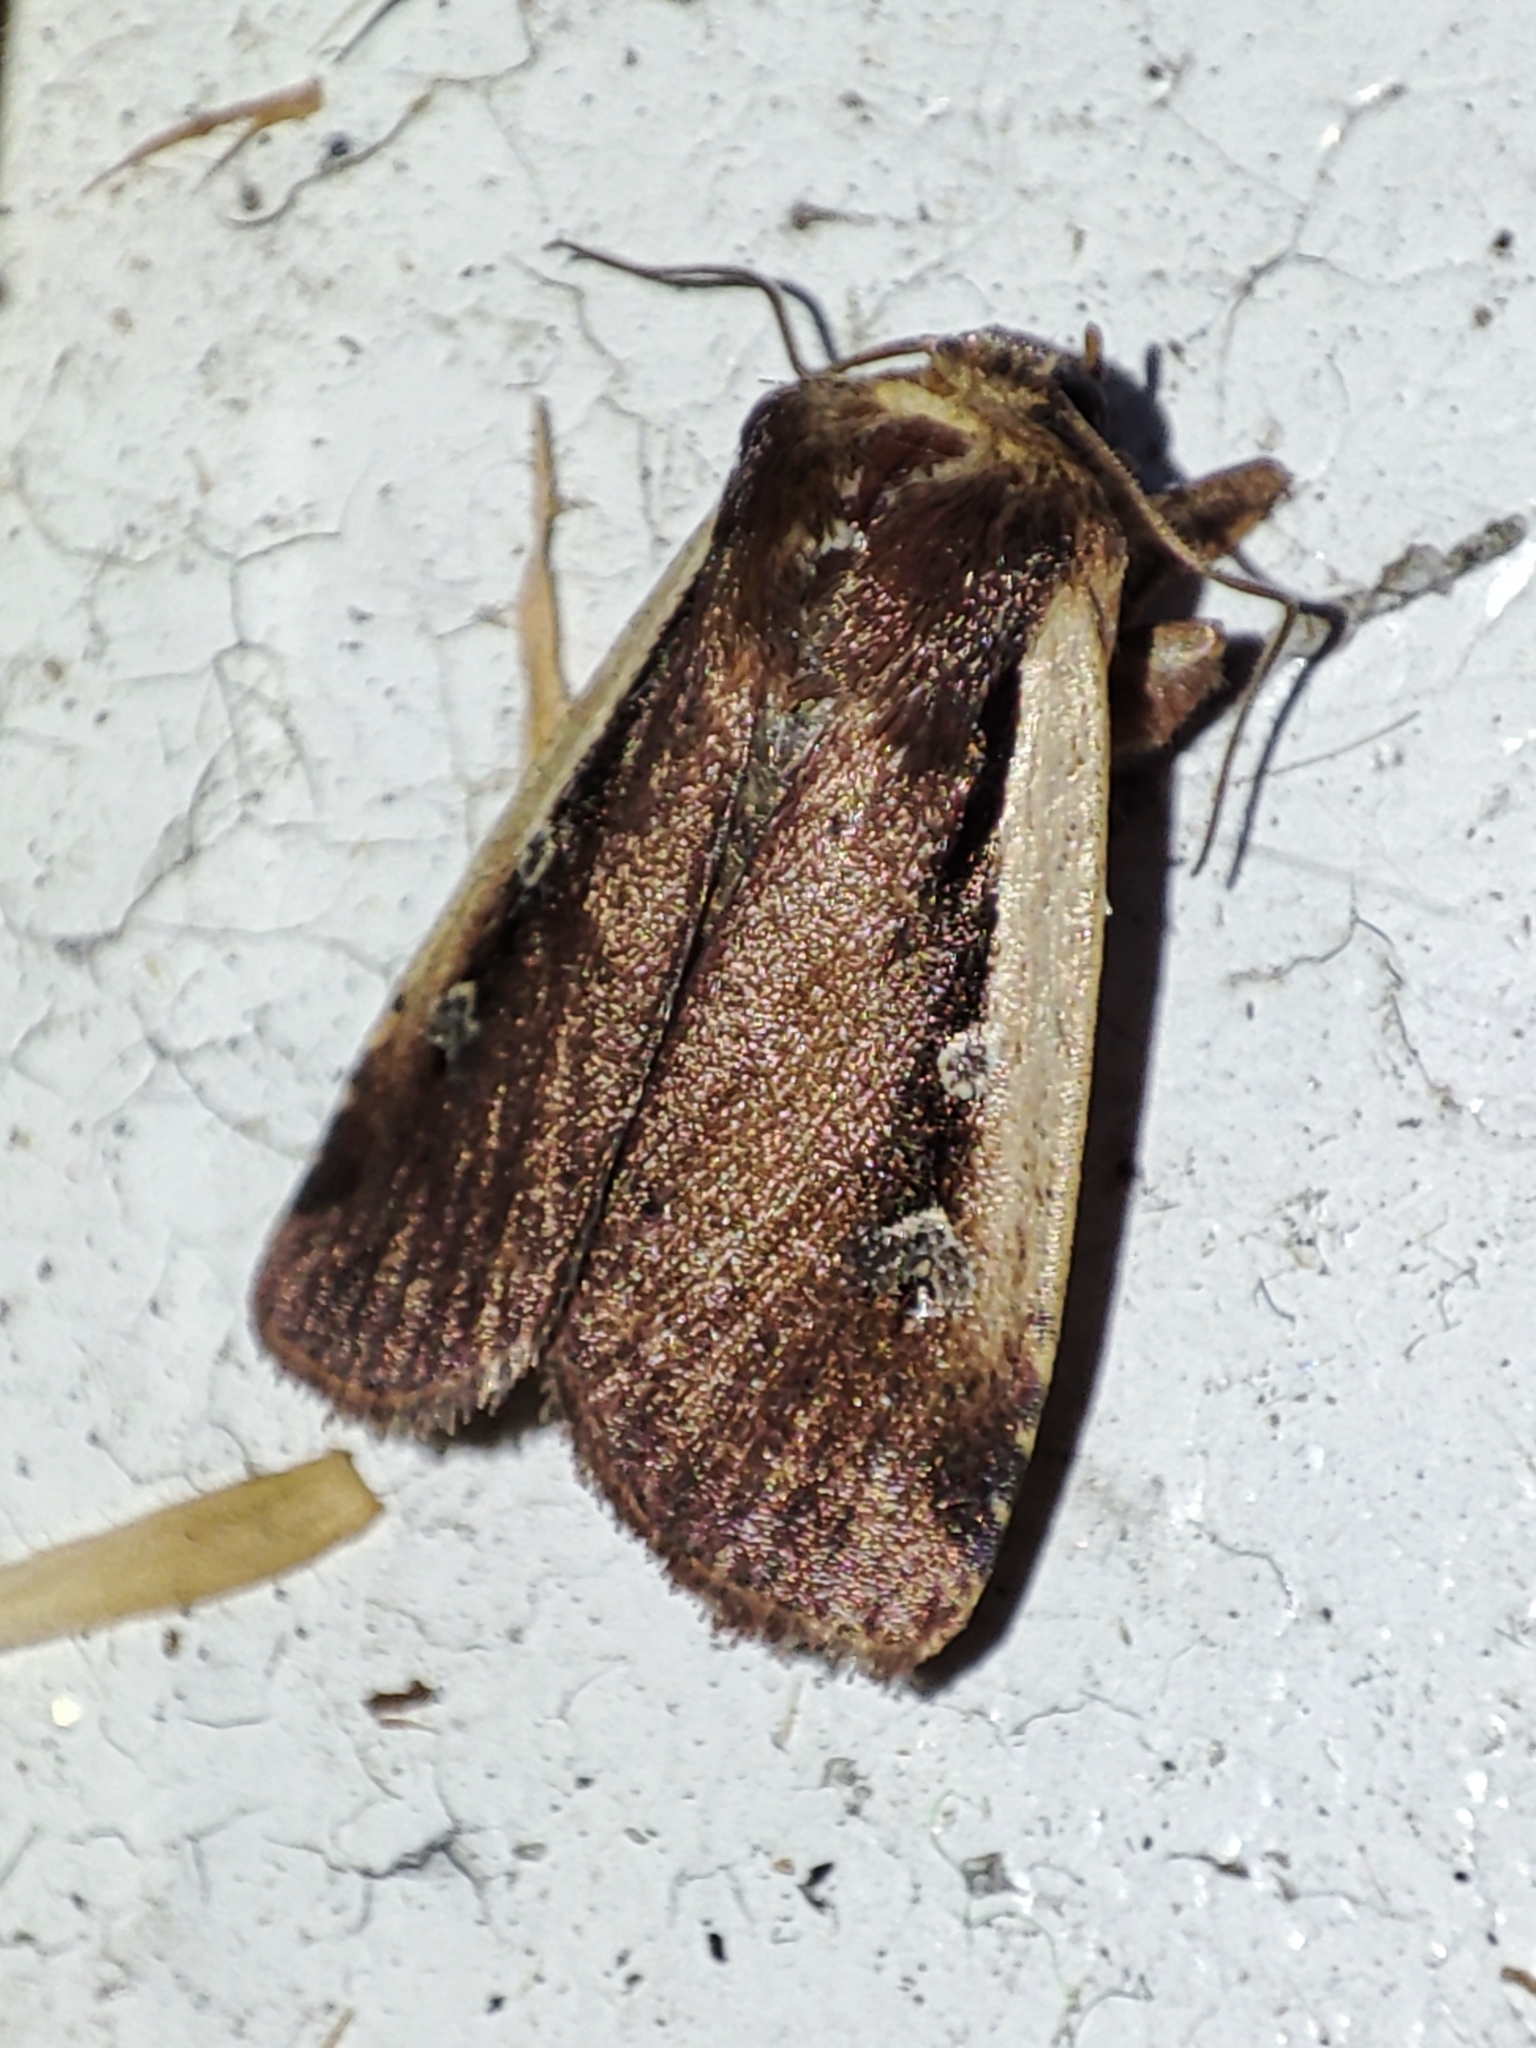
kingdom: Animalia
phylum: Arthropoda
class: Insecta
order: Lepidoptera
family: Noctuidae
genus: Ochropleura
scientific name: Ochropleura plecta
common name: Flame shoulder
